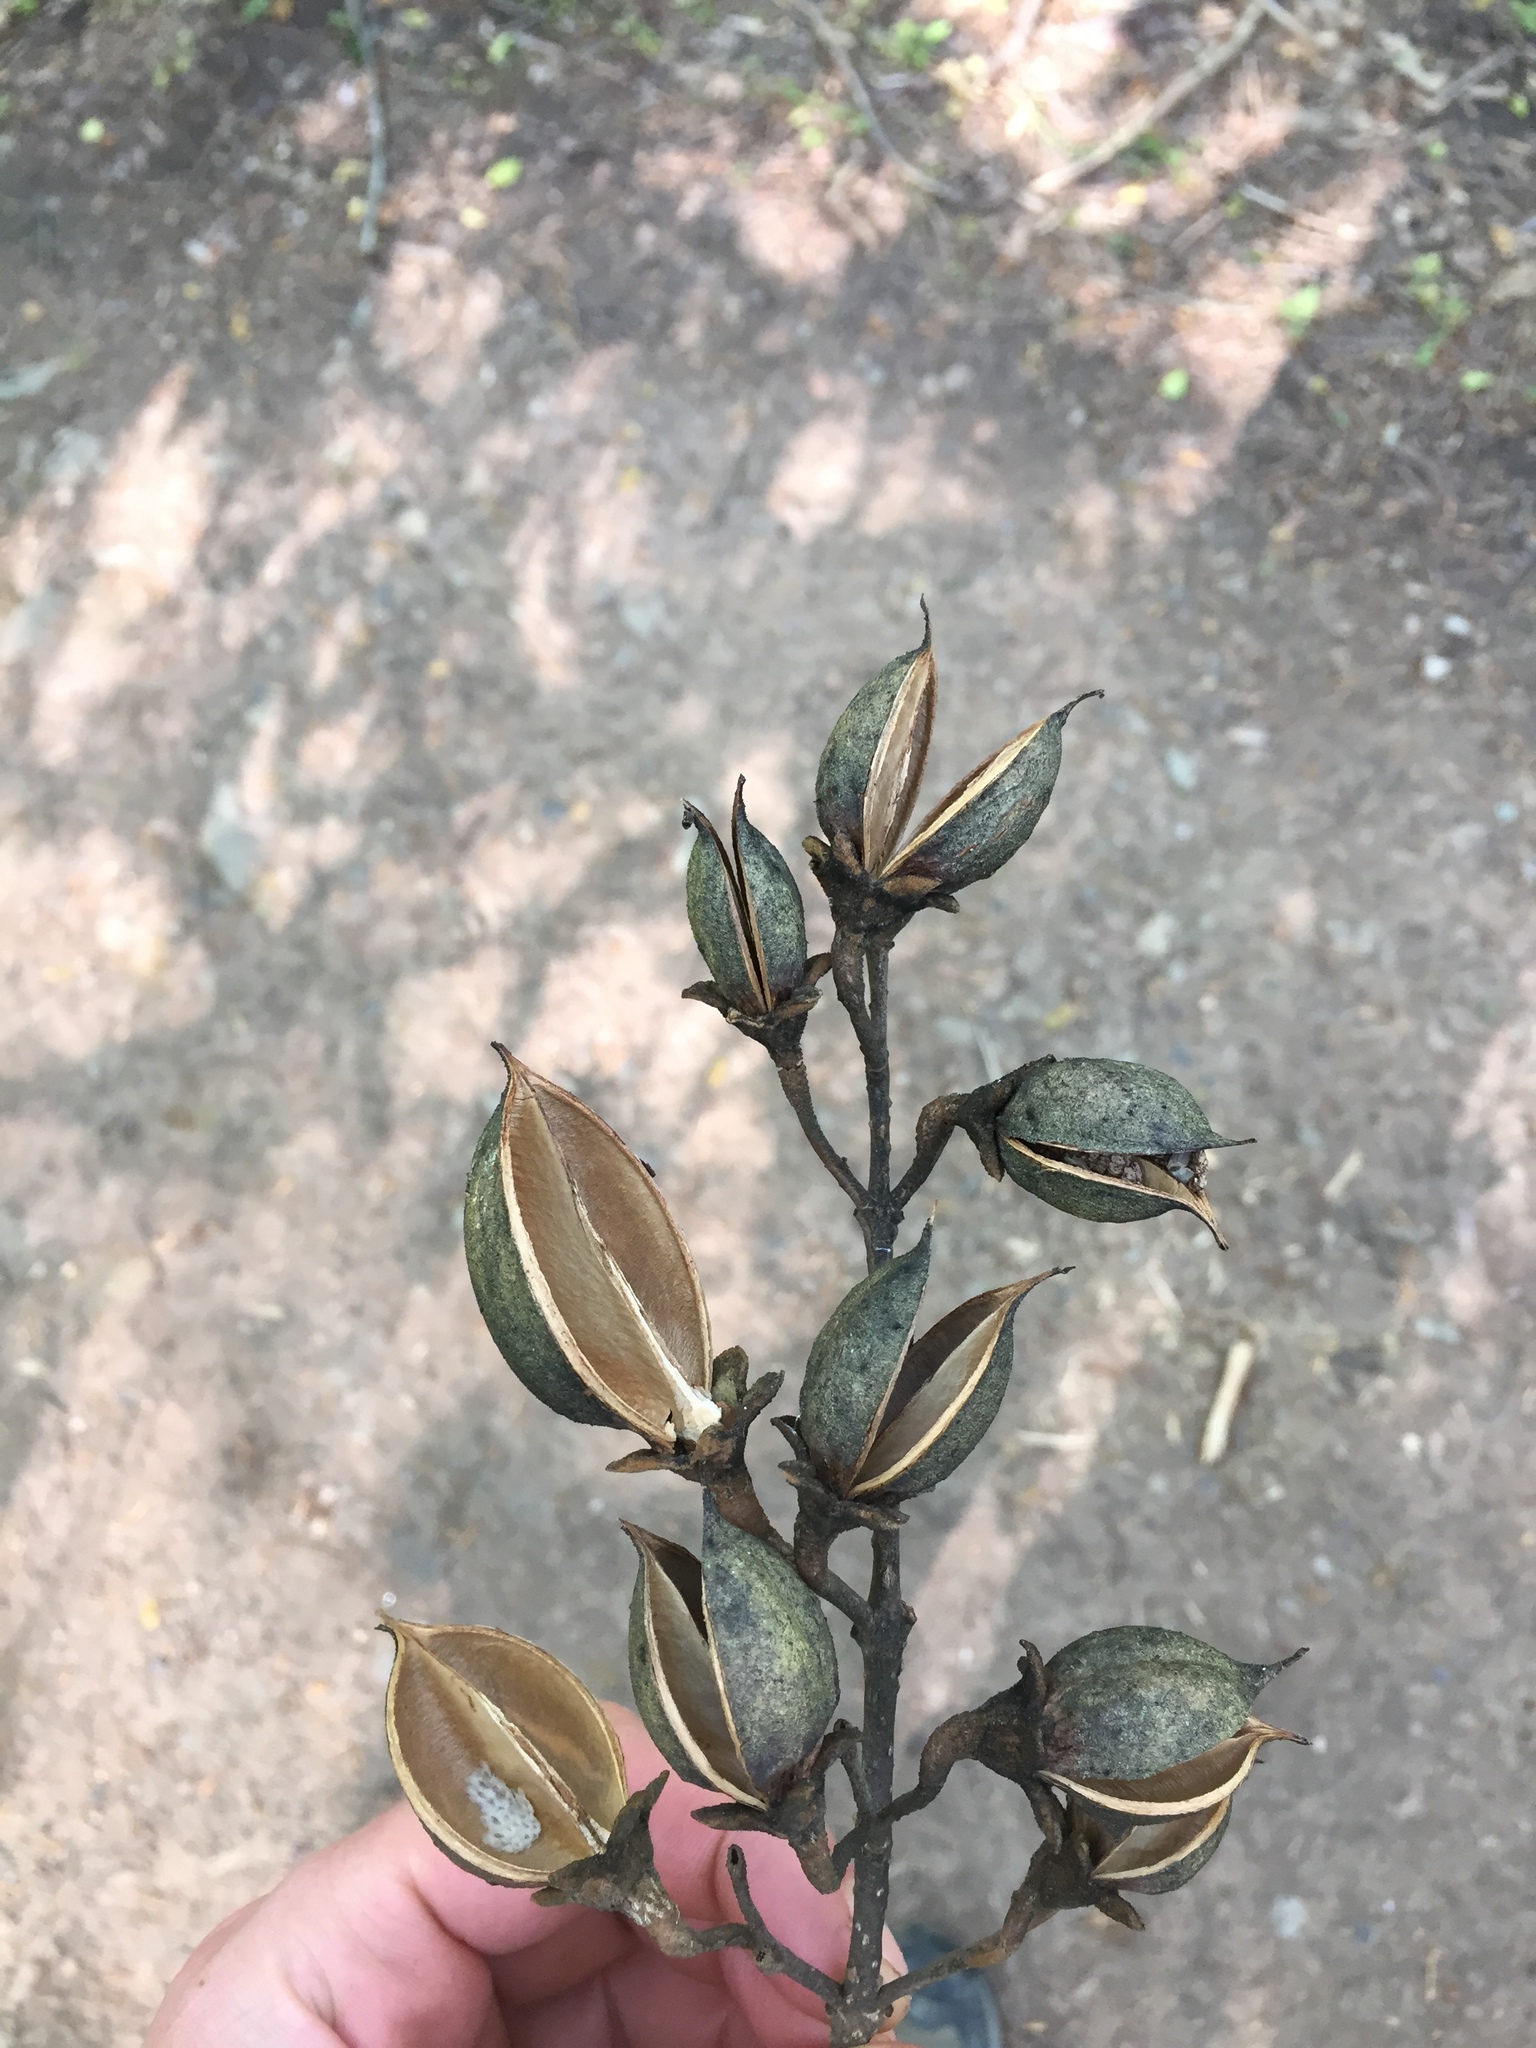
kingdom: Plantae
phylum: Tracheophyta
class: Magnoliopsida
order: Lamiales
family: Paulowniaceae
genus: Paulownia
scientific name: Paulownia tomentosa
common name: Foxglove-tree
